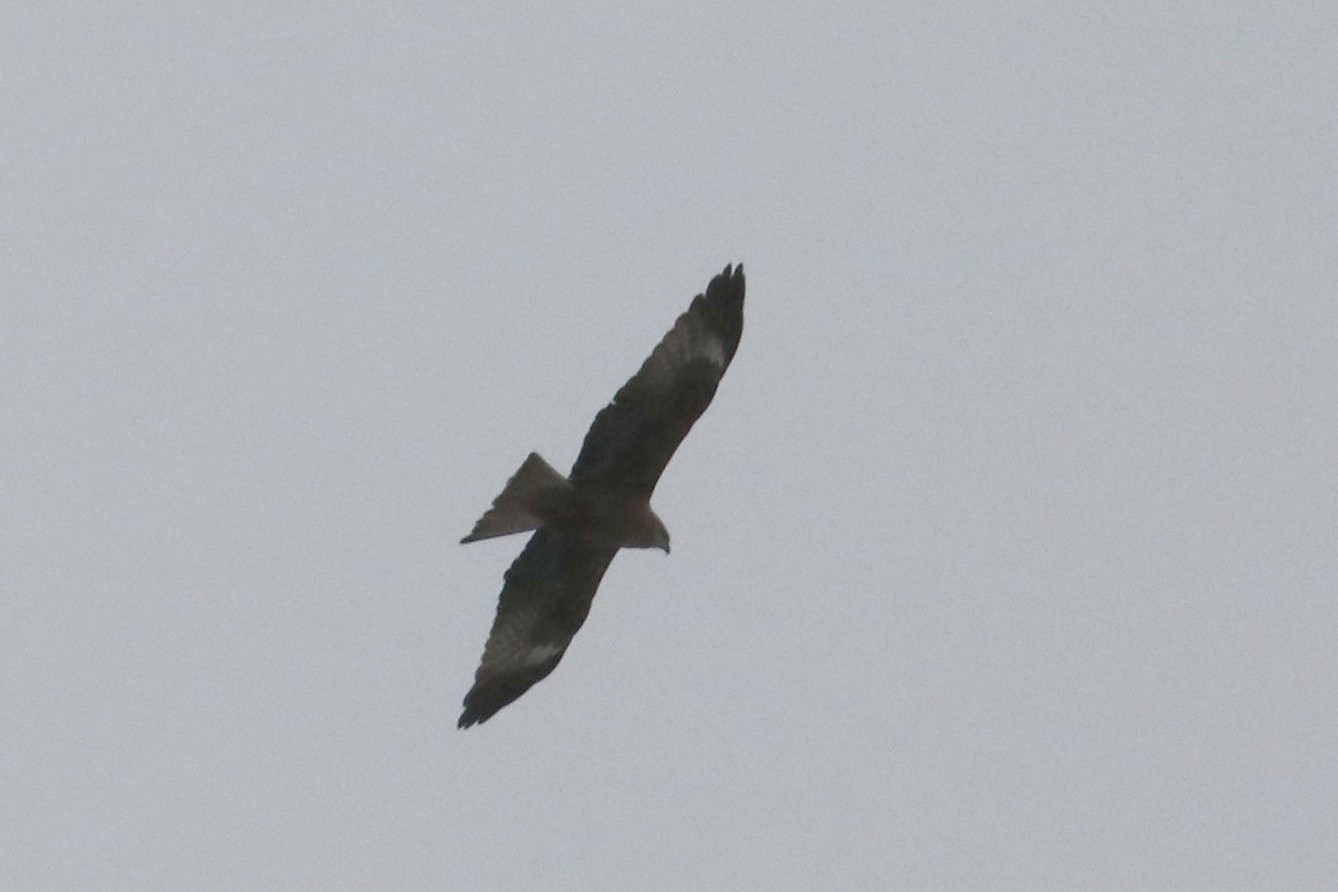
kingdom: Animalia
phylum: Chordata
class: Aves
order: Accipitriformes
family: Accipitridae
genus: Milvus
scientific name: Milvus migrans
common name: Black kite
